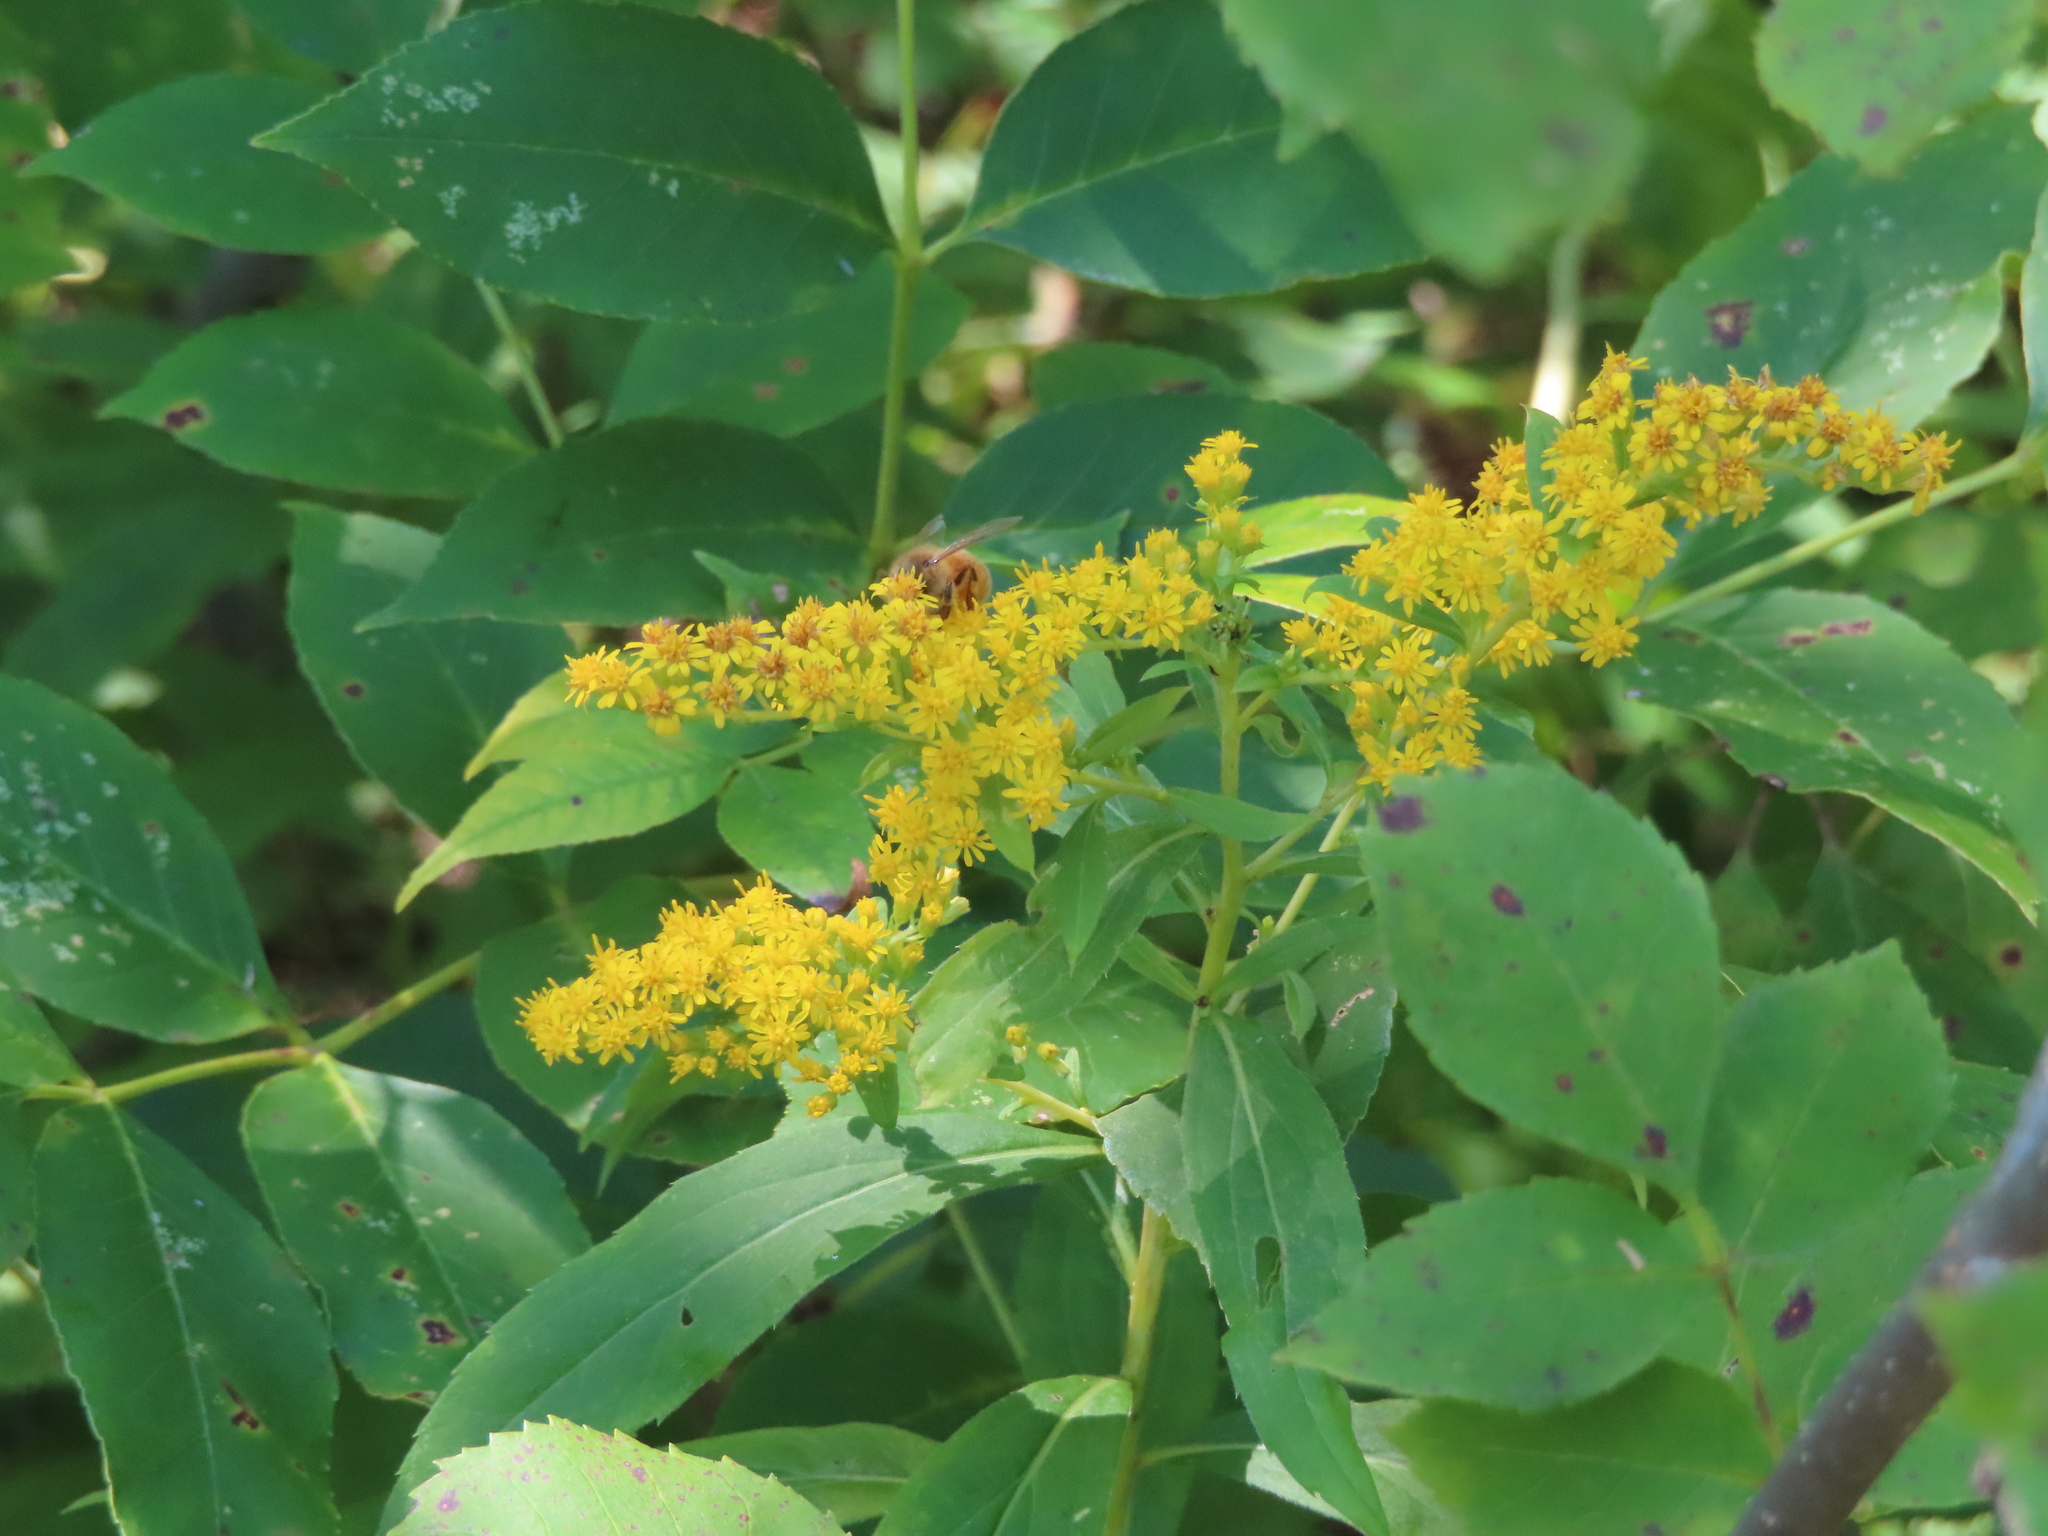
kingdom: Animalia
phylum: Arthropoda
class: Insecta
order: Hymenoptera
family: Apidae
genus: Apis
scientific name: Apis mellifera
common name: Honey bee
